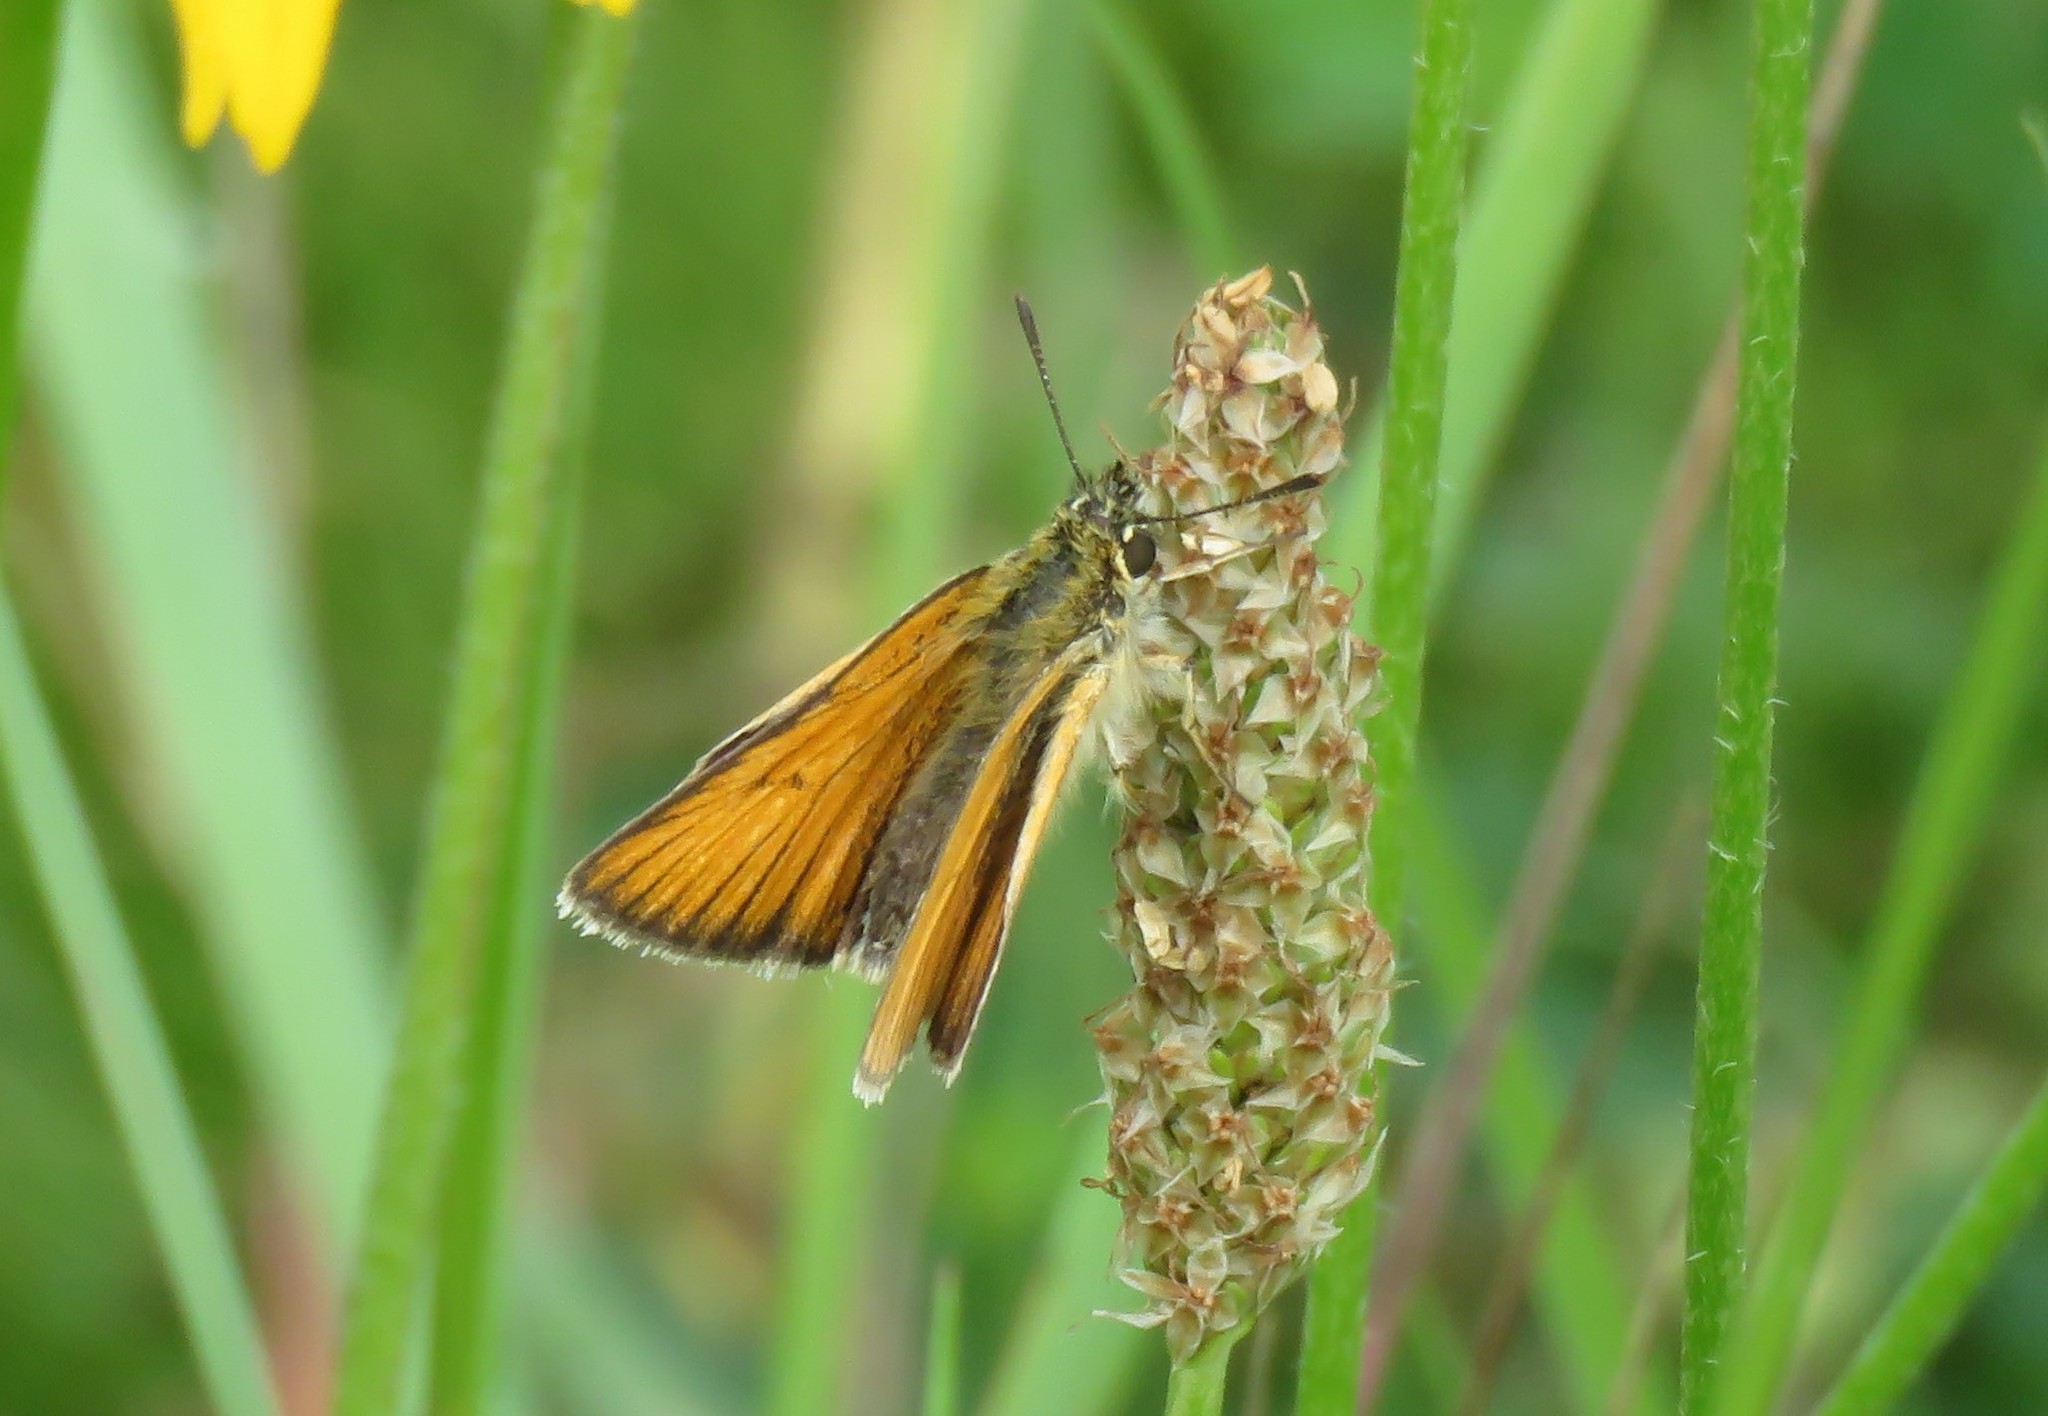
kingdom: Animalia
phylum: Arthropoda
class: Insecta
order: Lepidoptera
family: Hesperiidae
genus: Thymelicus
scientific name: Thymelicus lineola
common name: Essex skipper
